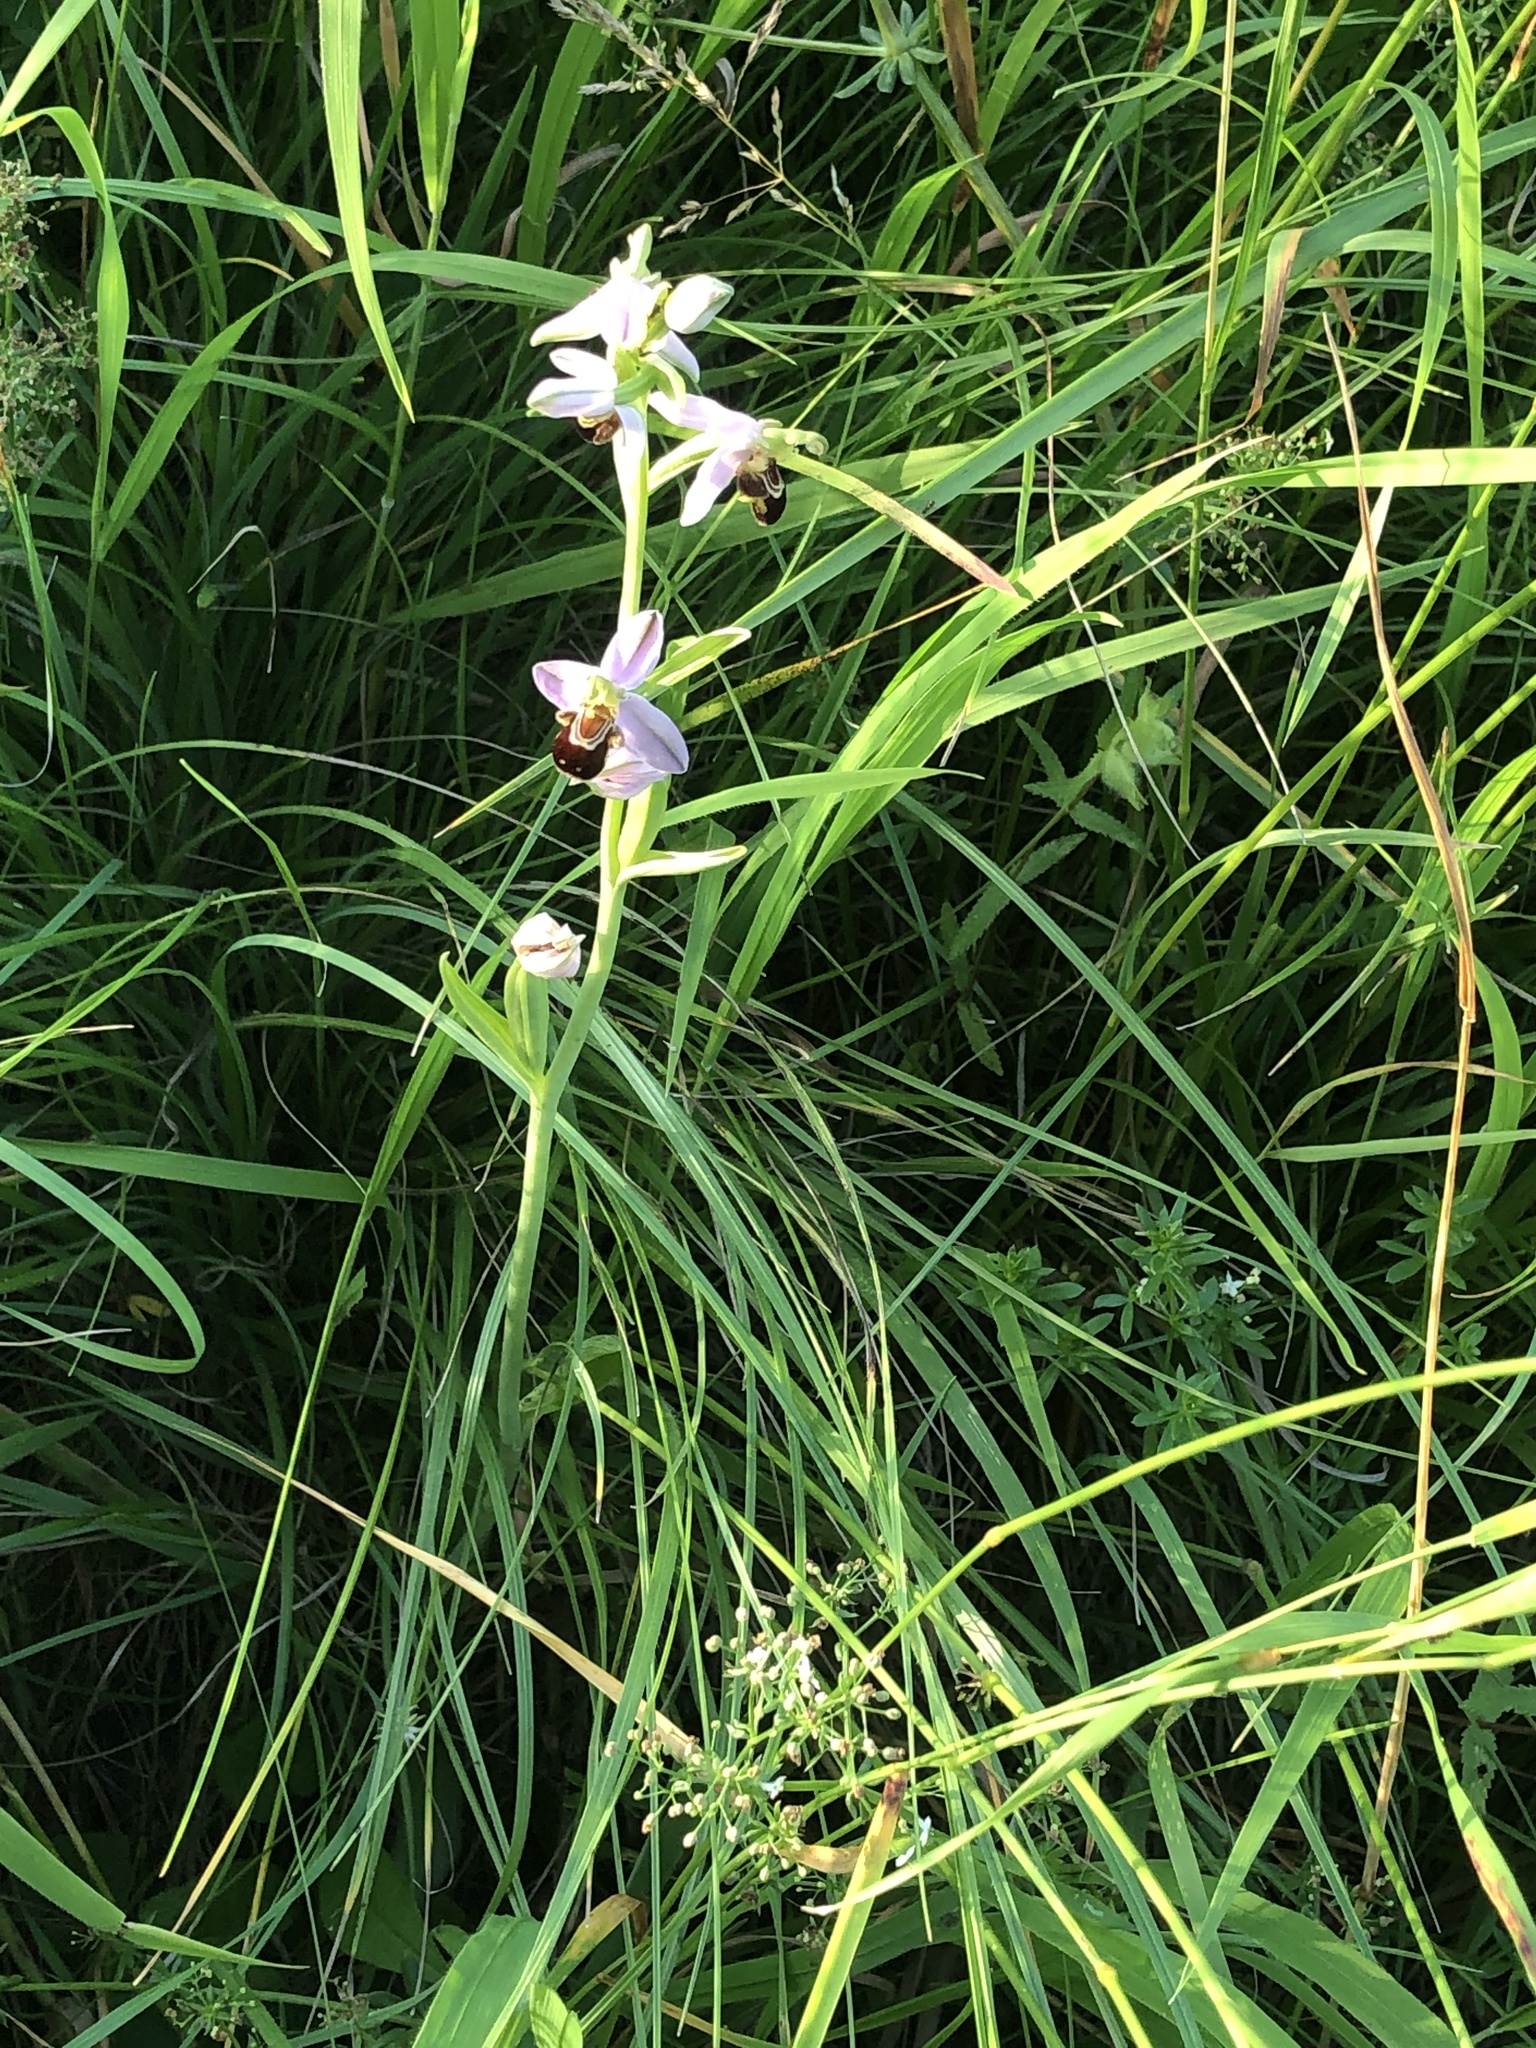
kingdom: Plantae
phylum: Tracheophyta
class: Liliopsida
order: Asparagales
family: Orchidaceae
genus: Ophrys
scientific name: Ophrys apifera
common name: Bee orchid
